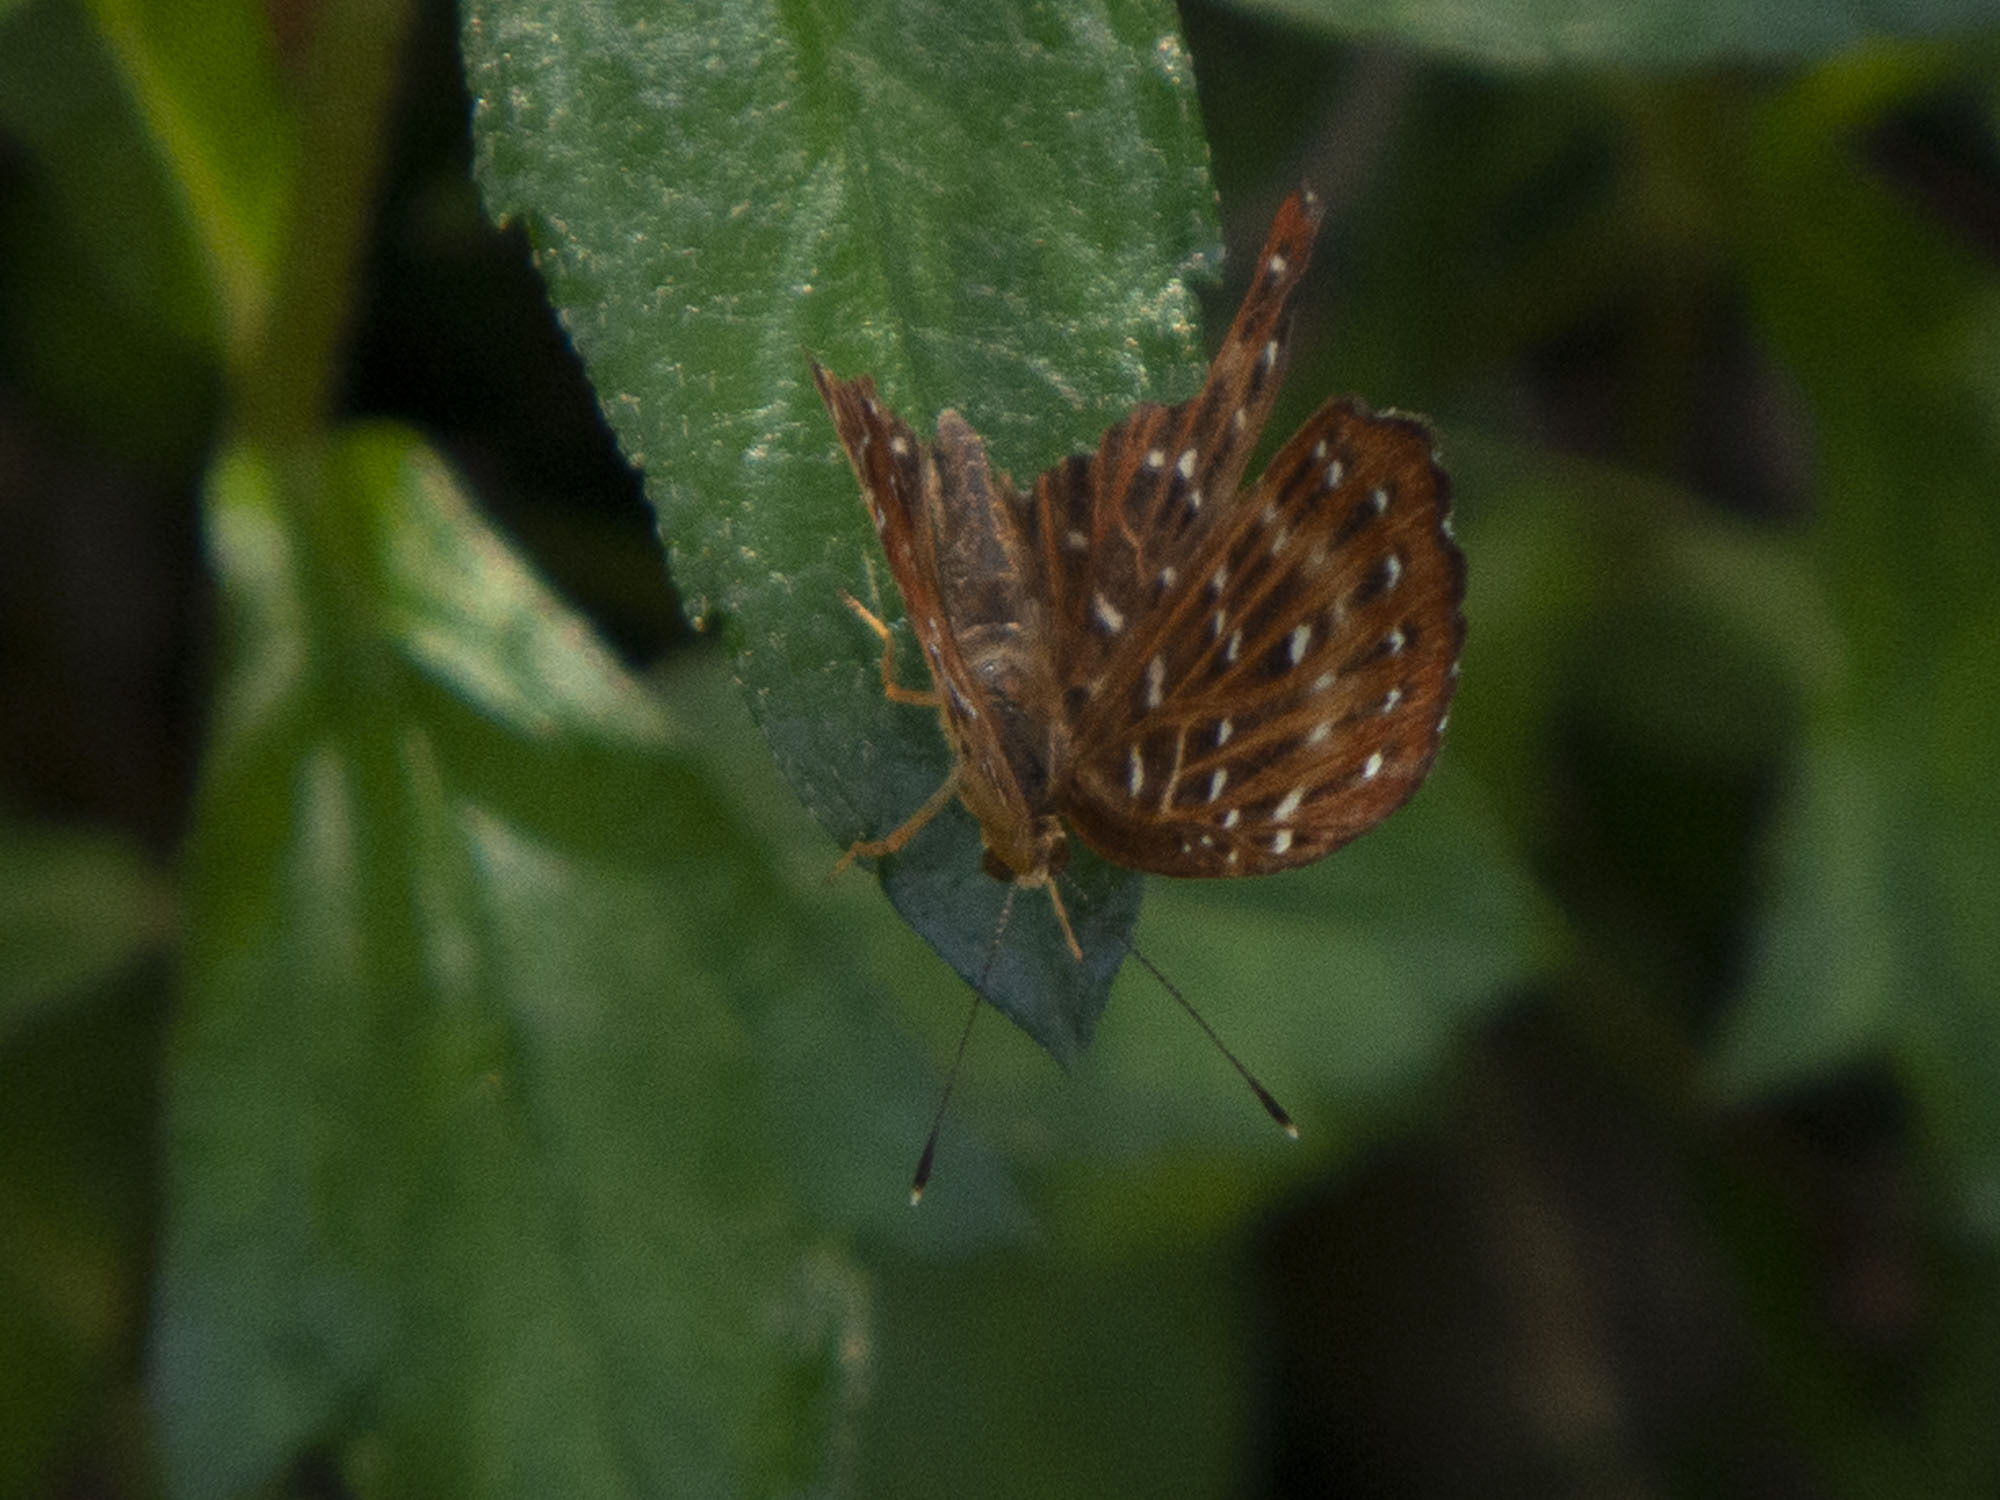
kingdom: Animalia
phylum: Arthropoda
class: Insecta
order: Lepidoptera
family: Riodinidae
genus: Zemeros
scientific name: Zemeros flegyas
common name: Punchinello
